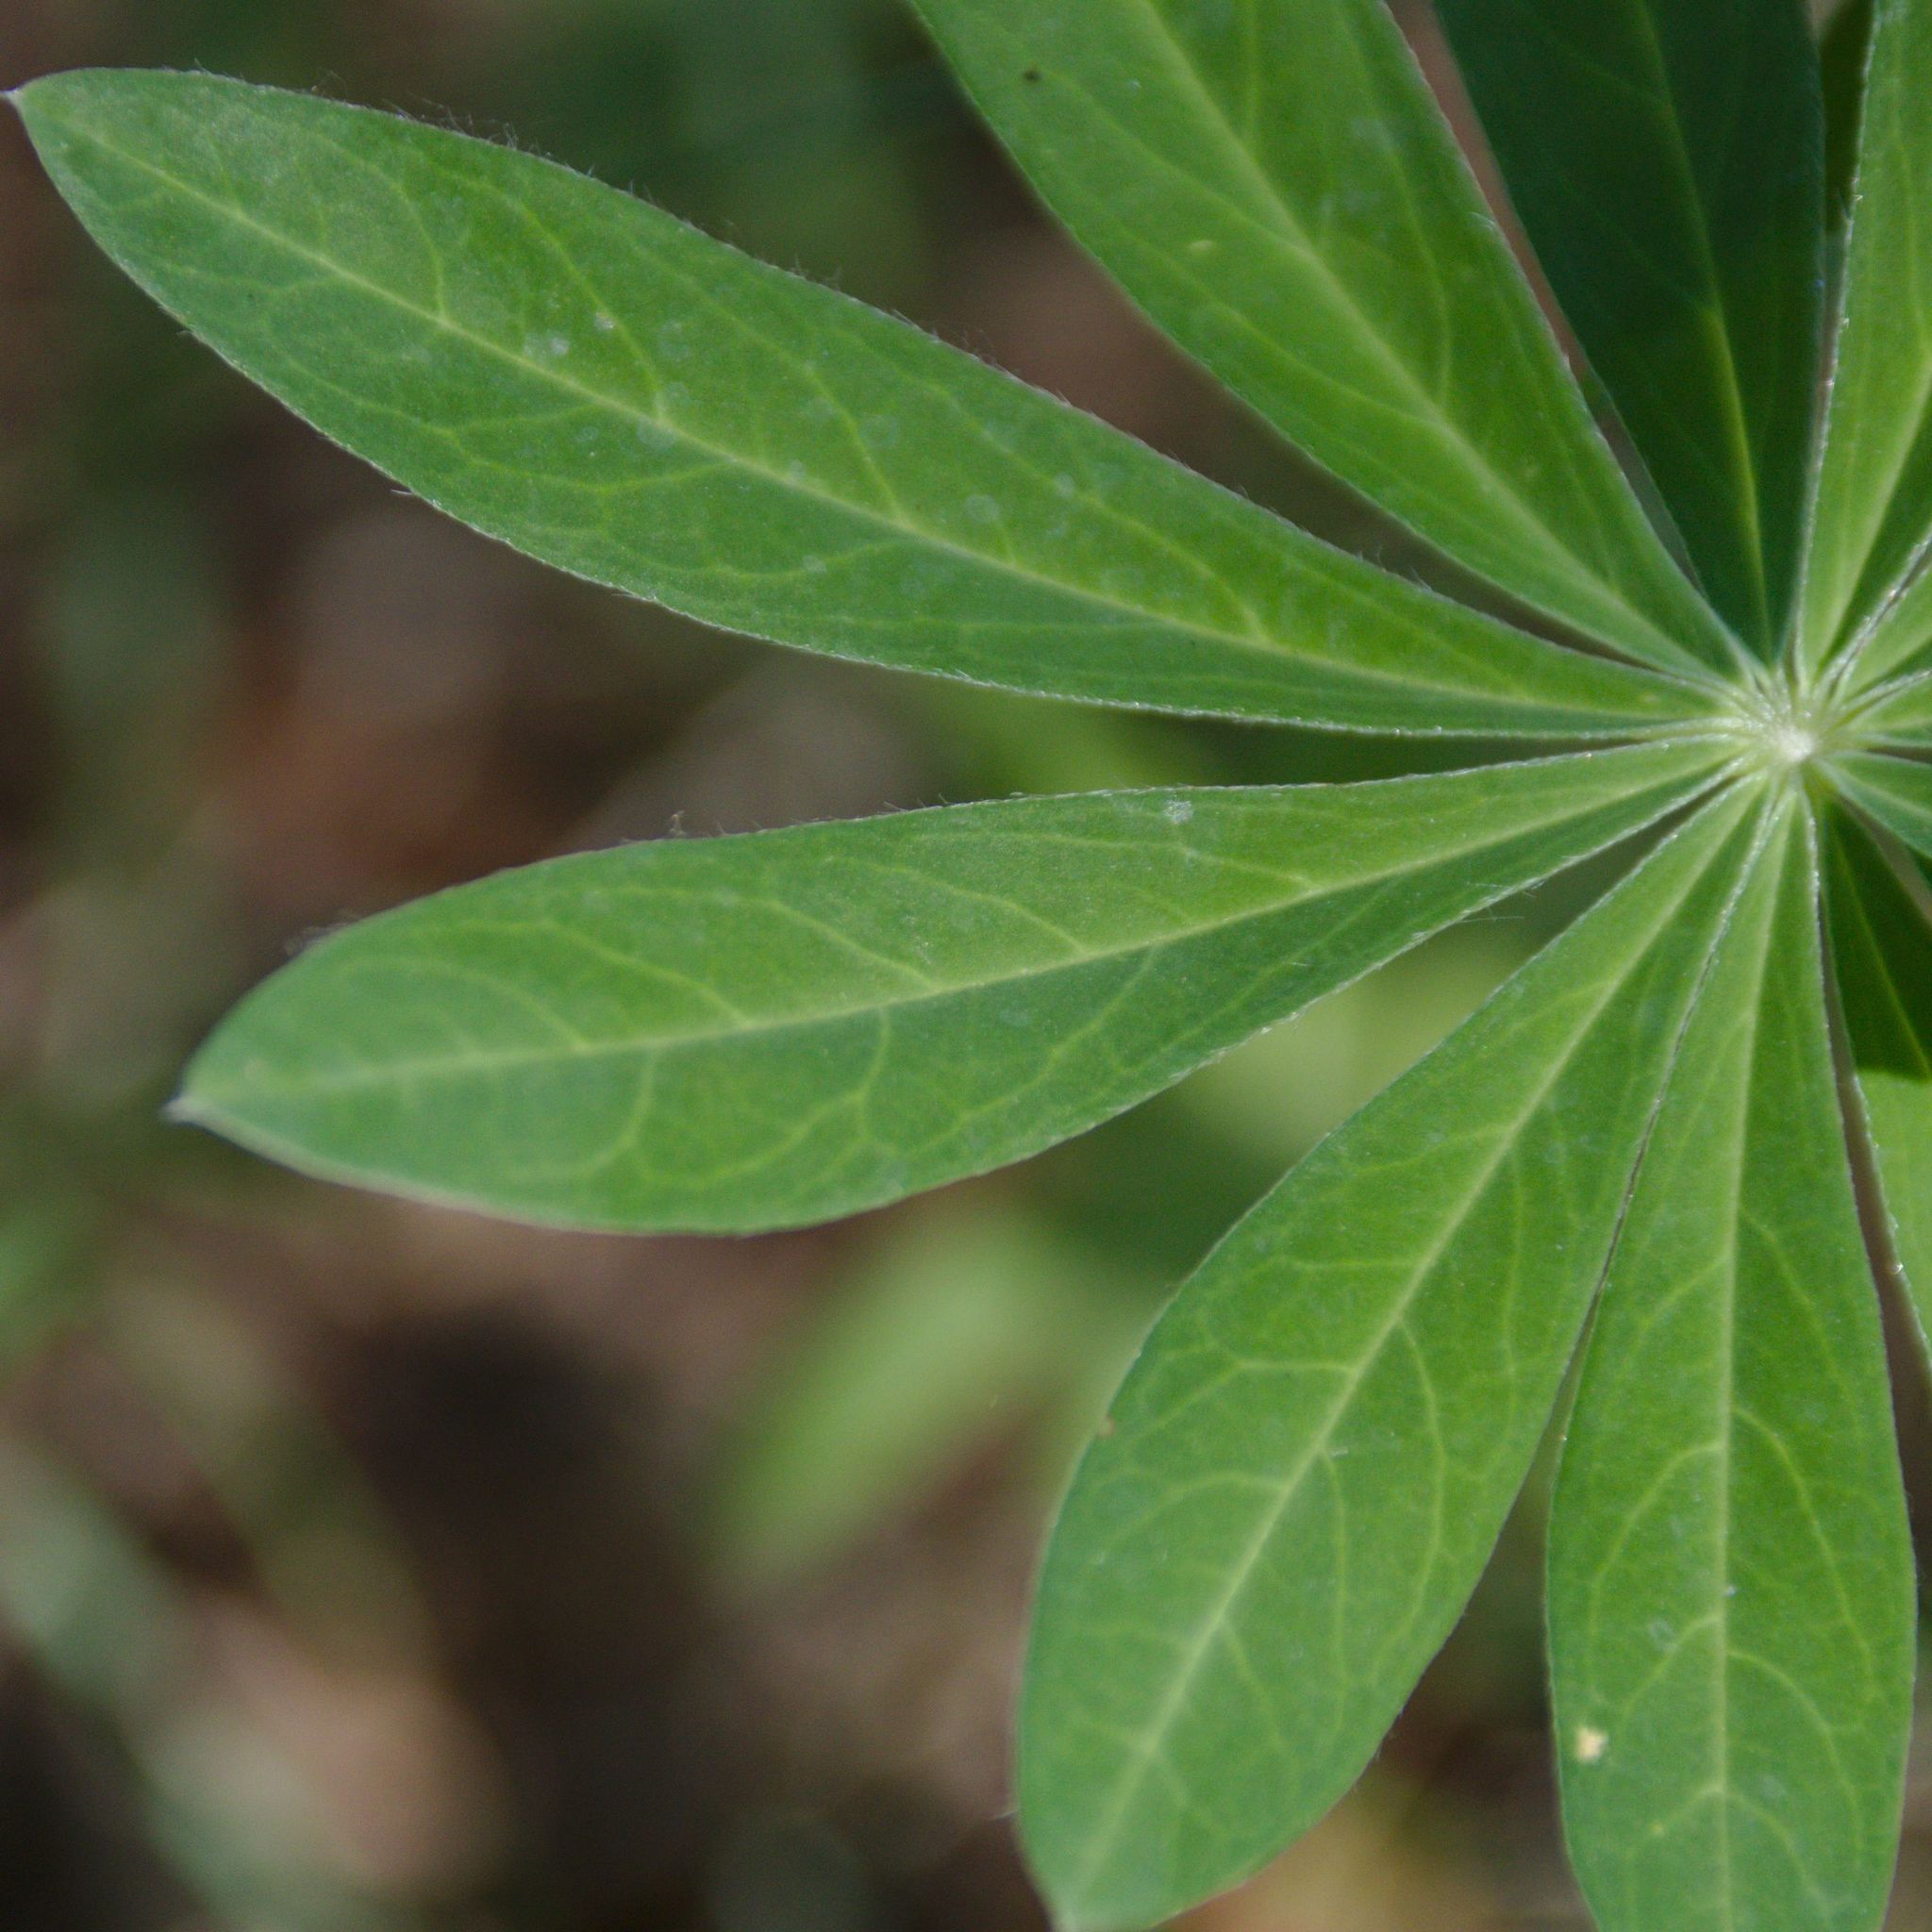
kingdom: Plantae
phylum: Tracheophyta
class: Magnoliopsida
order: Fabales
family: Fabaceae
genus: Lupinus
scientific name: Lupinus polyphyllus
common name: Garden lupin
